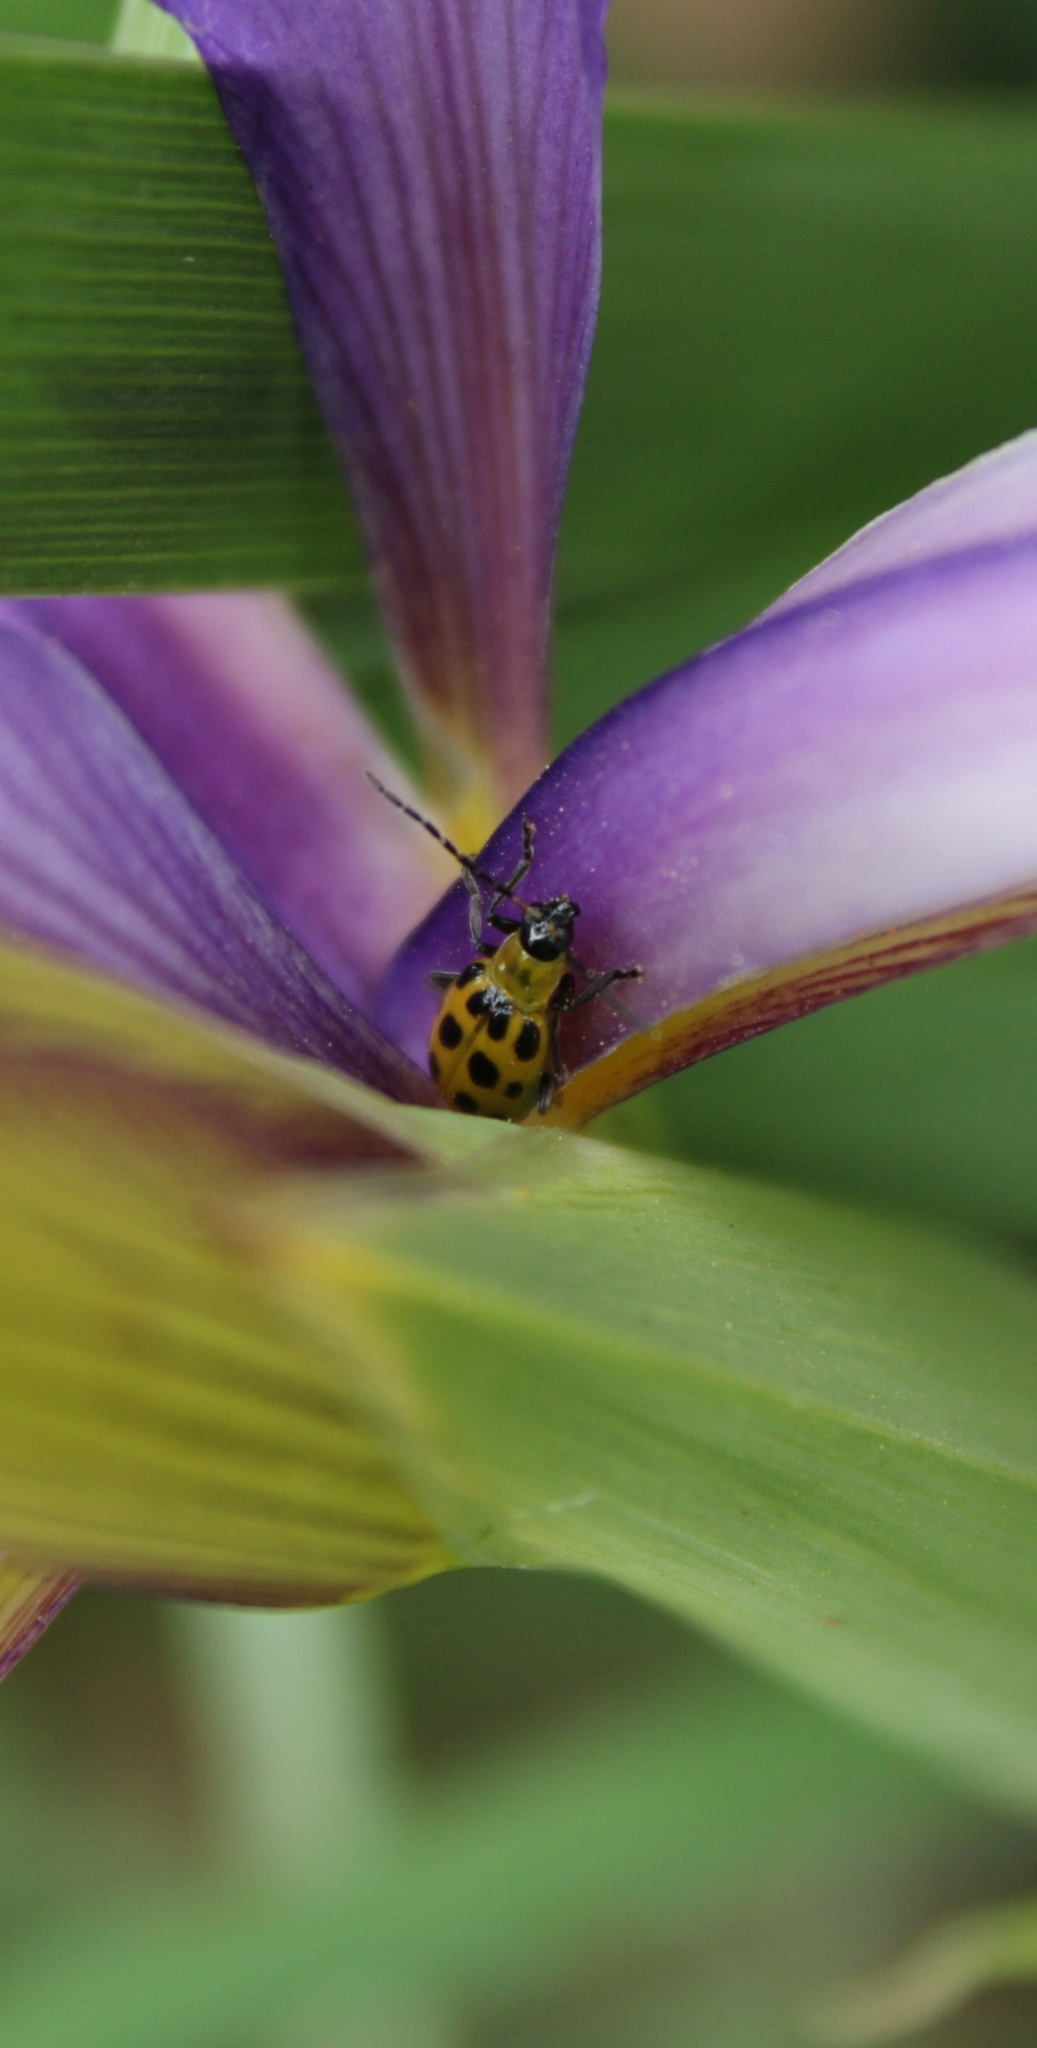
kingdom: Animalia
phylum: Arthropoda
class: Insecta
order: Coleoptera
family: Chrysomelidae
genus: Diabrotica
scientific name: Diabrotica undecimpunctata
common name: Spotted cucumber beetle
